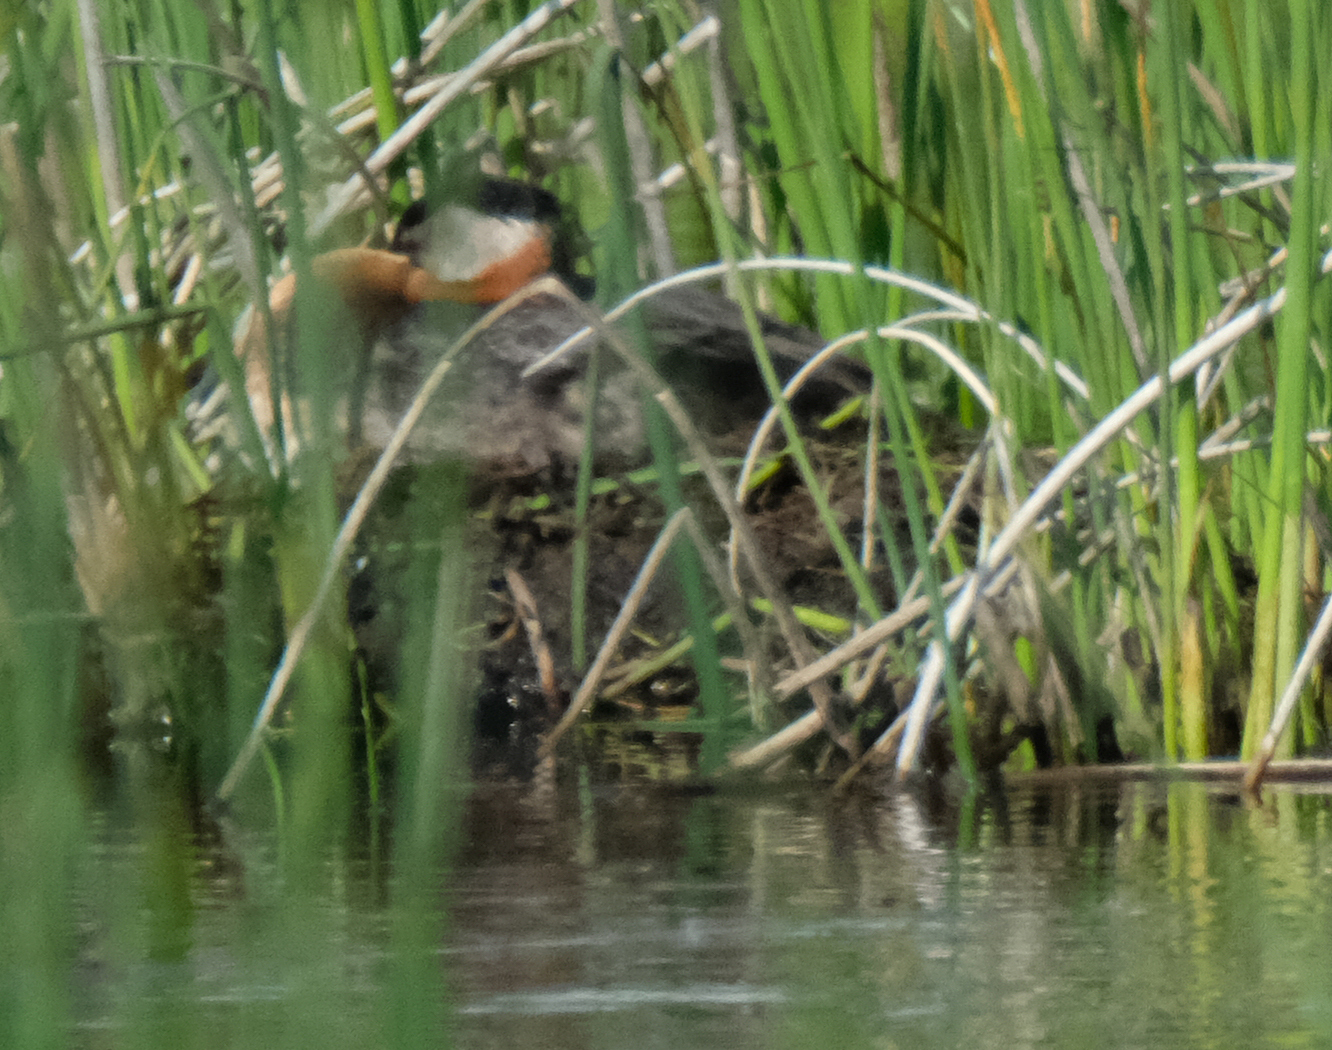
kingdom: Animalia
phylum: Chordata
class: Aves
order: Podicipediformes
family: Podicipedidae
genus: Podiceps
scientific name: Podiceps grisegena
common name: Red-necked grebe
